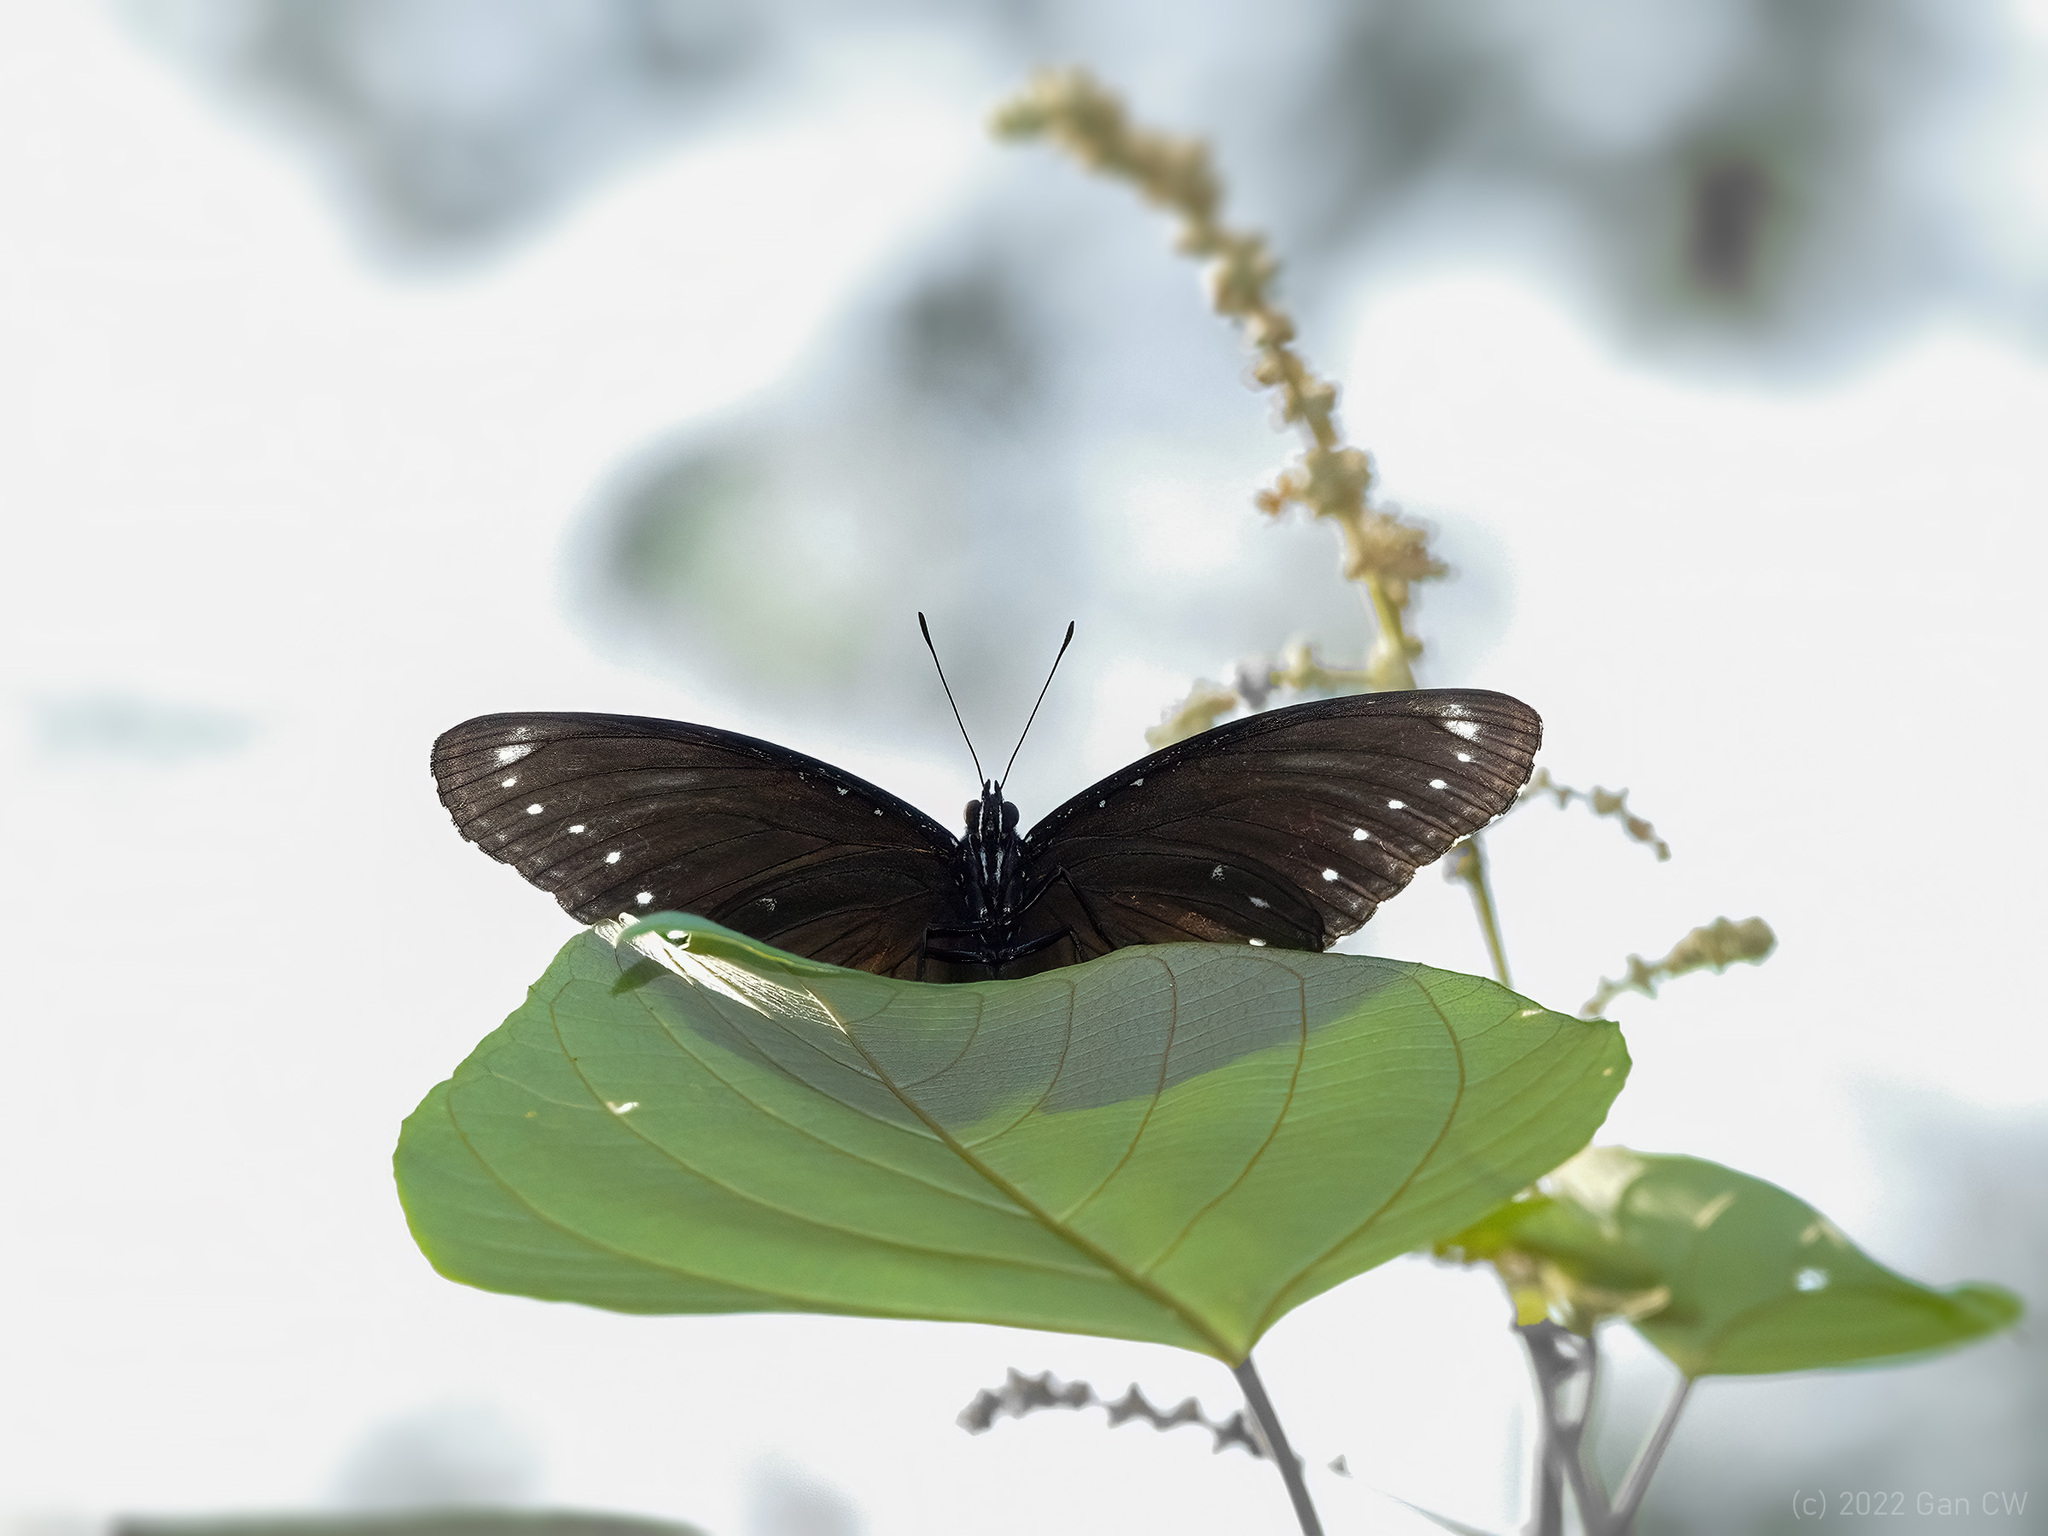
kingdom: Animalia
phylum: Arthropoda
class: Insecta
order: Lepidoptera
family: Nymphalidae
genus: Hypolimnas
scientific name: Hypolimnas anomala
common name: Malayan eggfly
